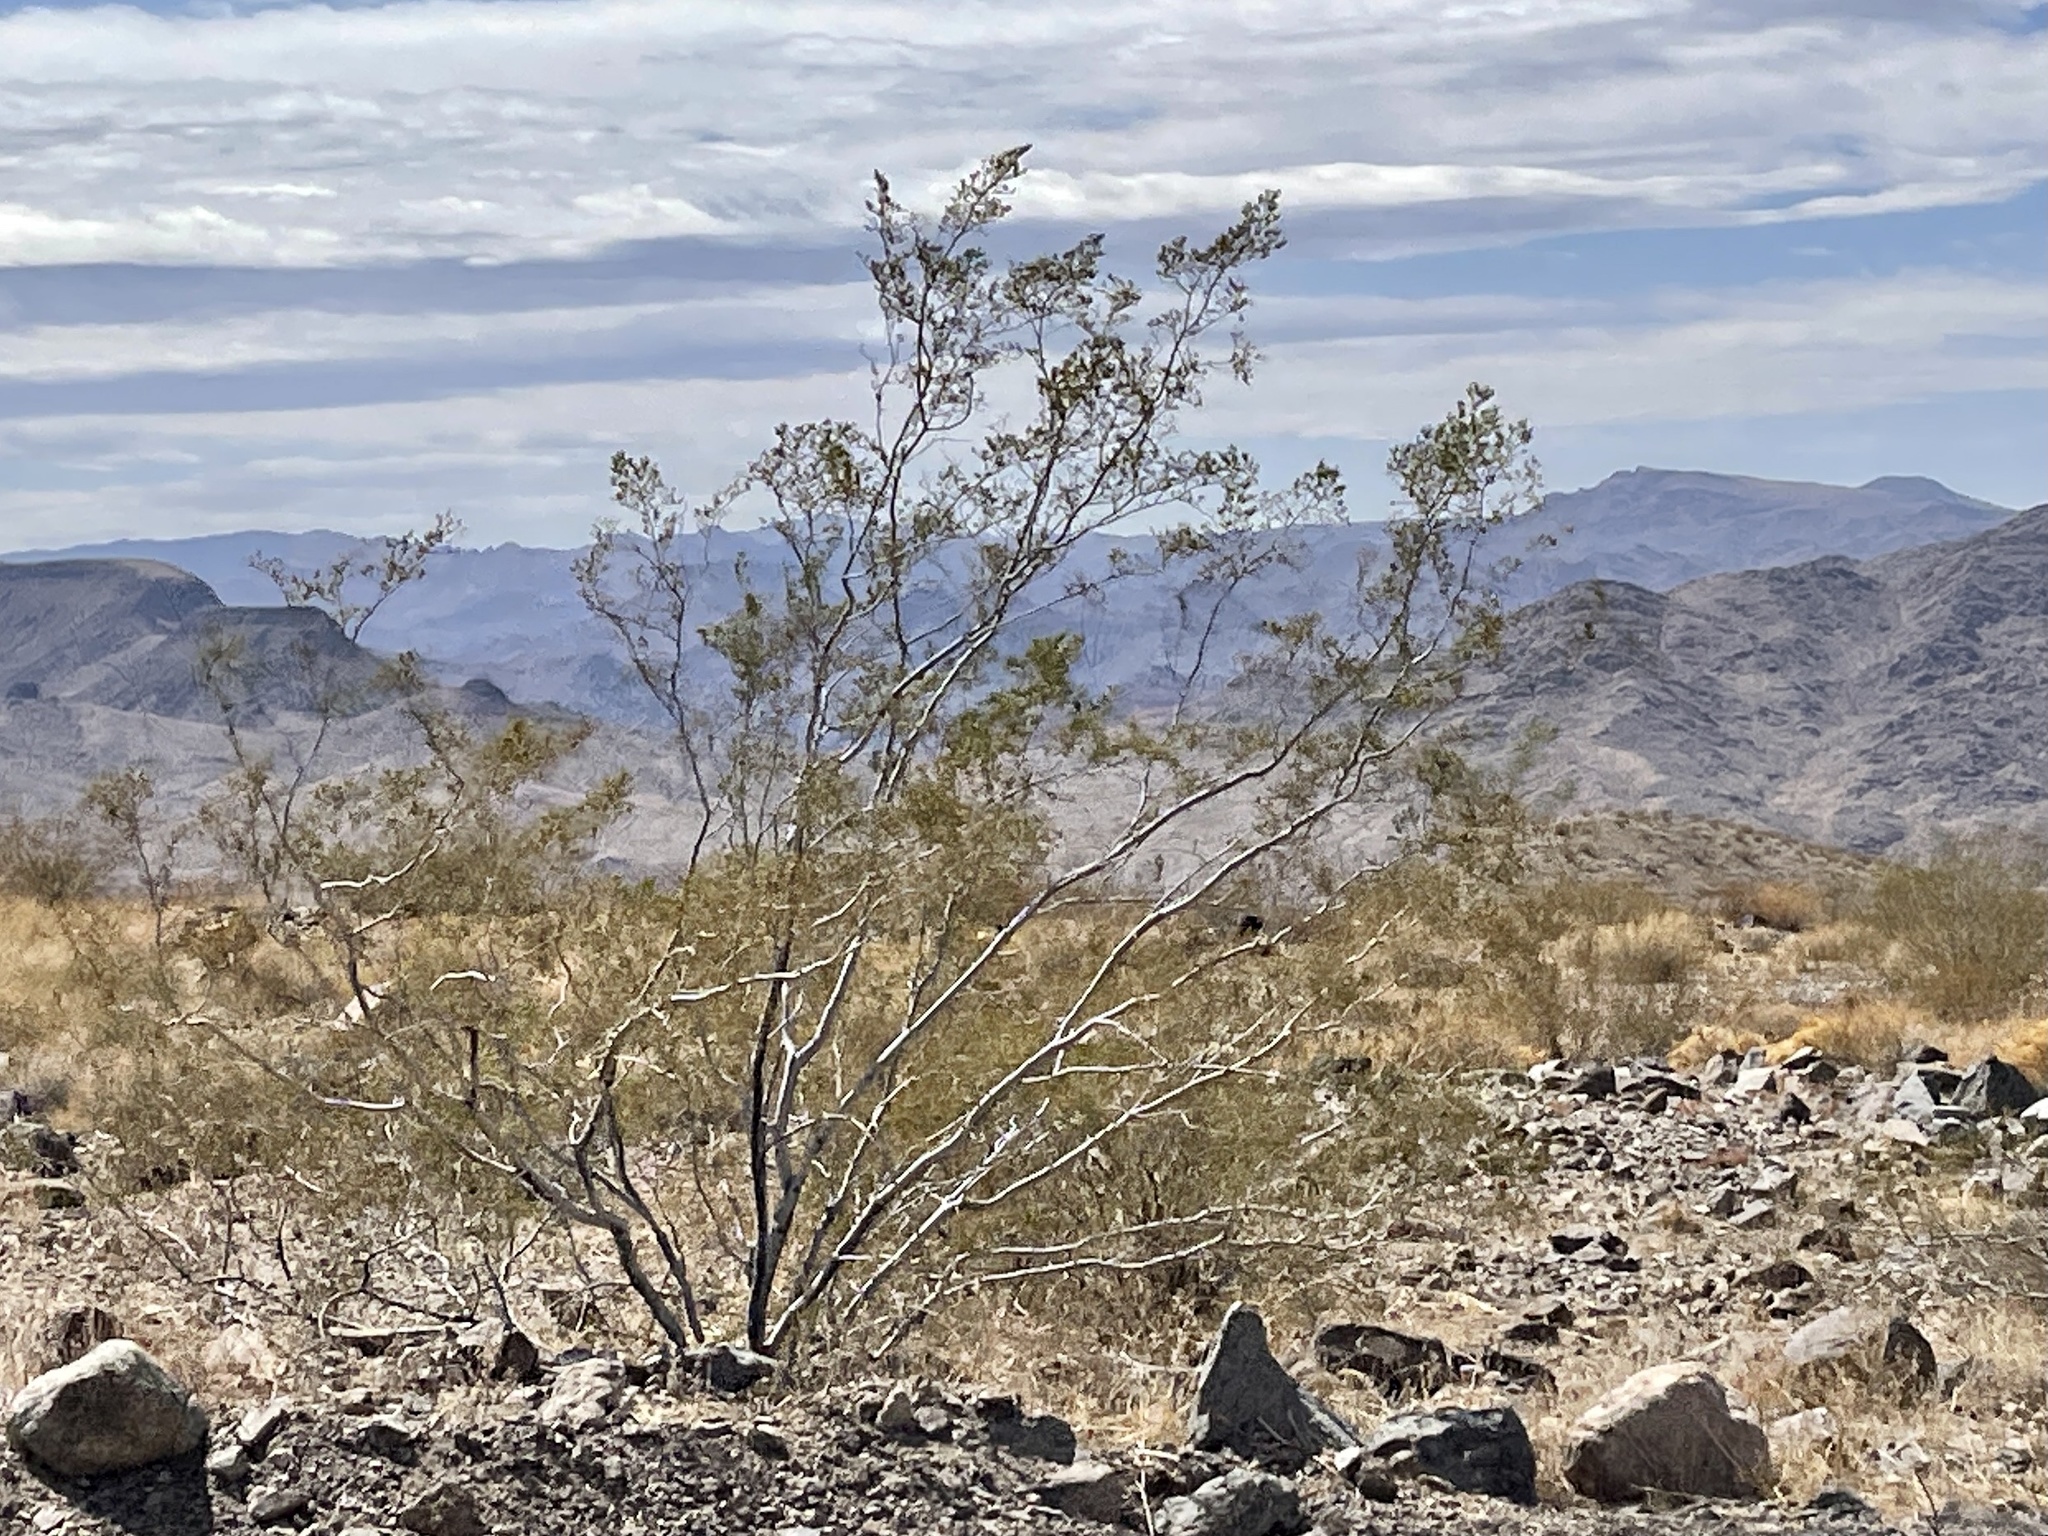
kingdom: Plantae
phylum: Tracheophyta
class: Magnoliopsida
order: Zygophyllales
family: Zygophyllaceae
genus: Larrea
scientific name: Larrea tridentata
